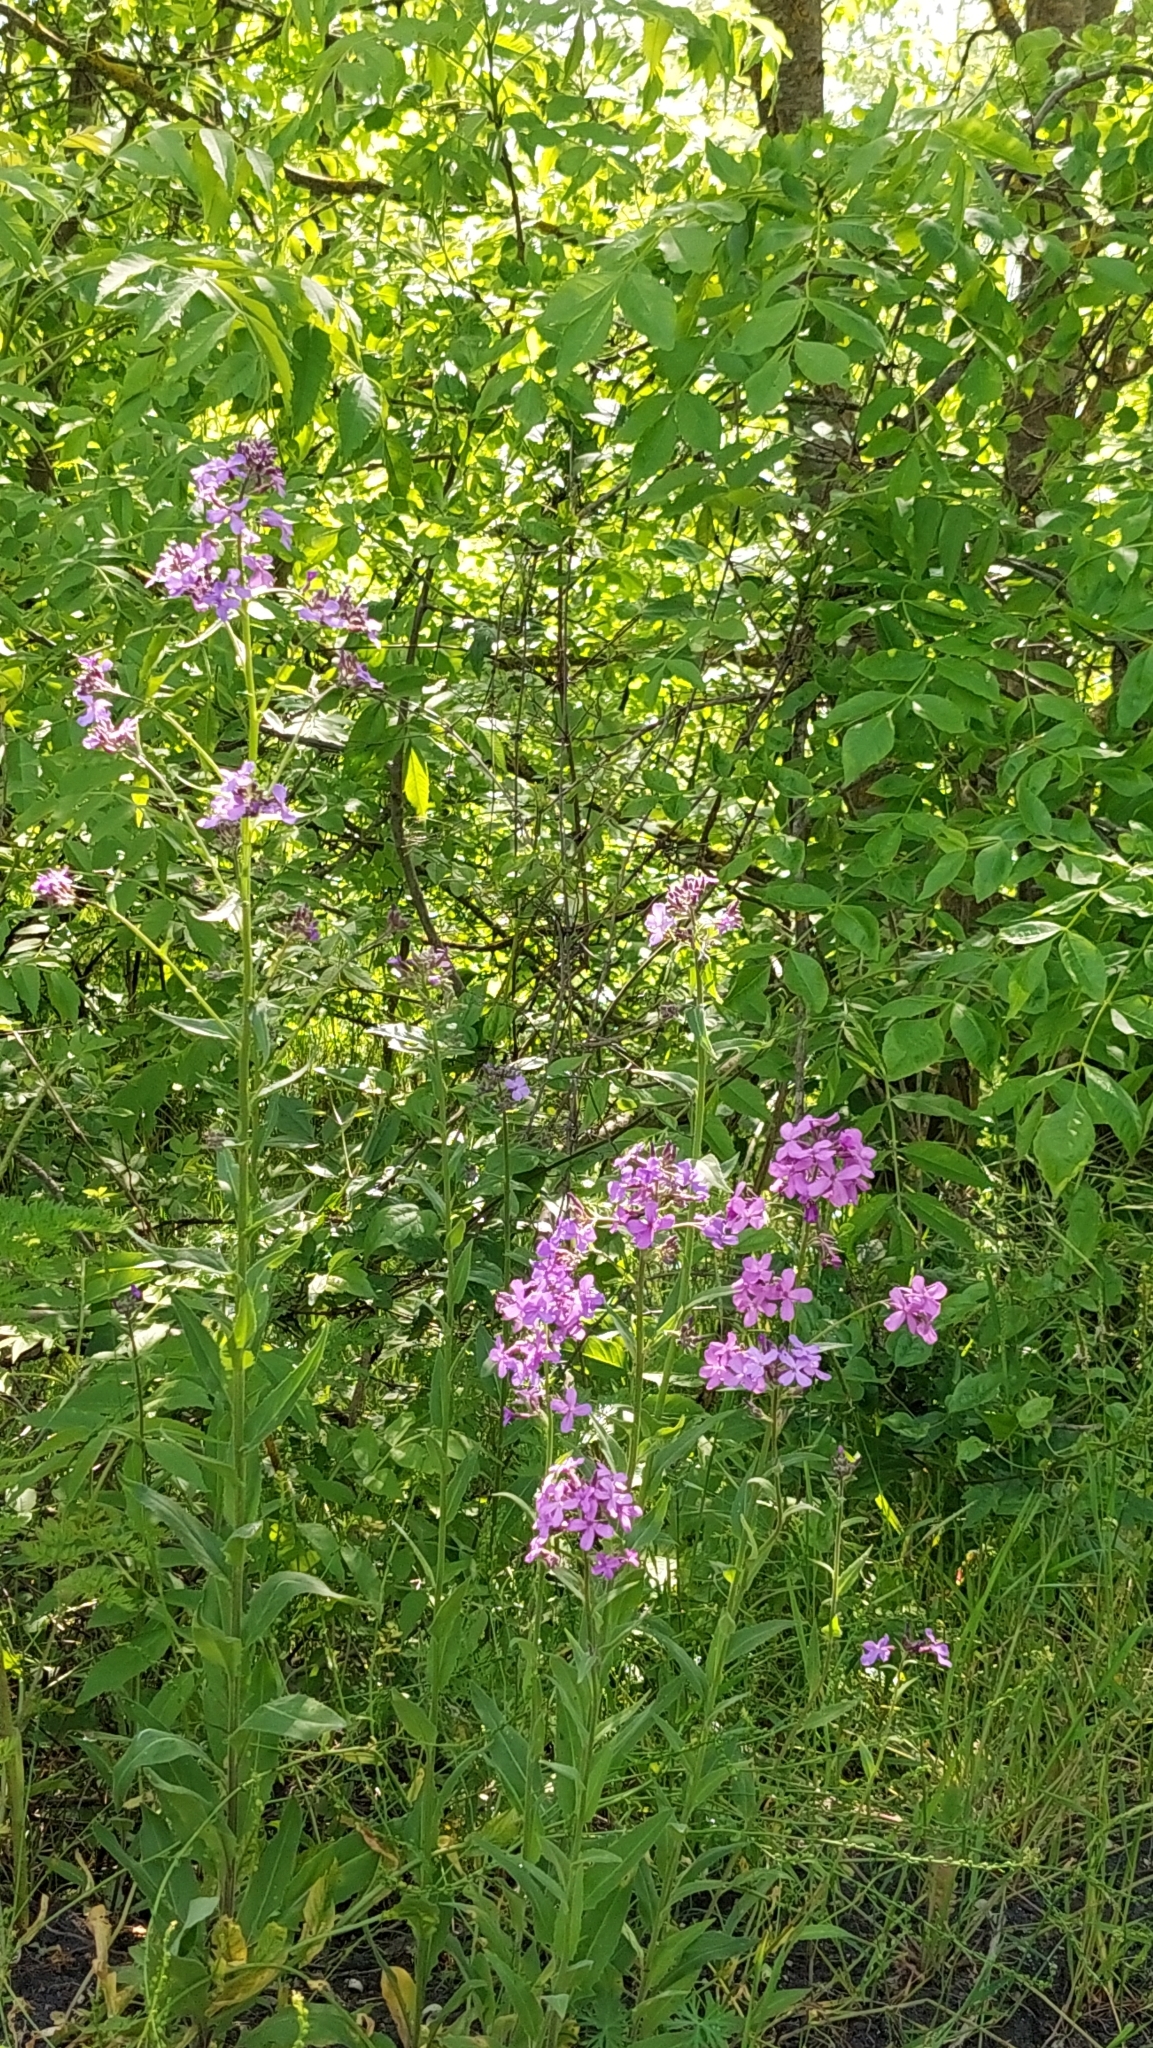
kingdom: Plantae
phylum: Tracheophyta
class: Magnoliopsida
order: Brassicales
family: Brassicaceae
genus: Hesperis
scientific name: Hesperis matronalis
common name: Dame's-violet
